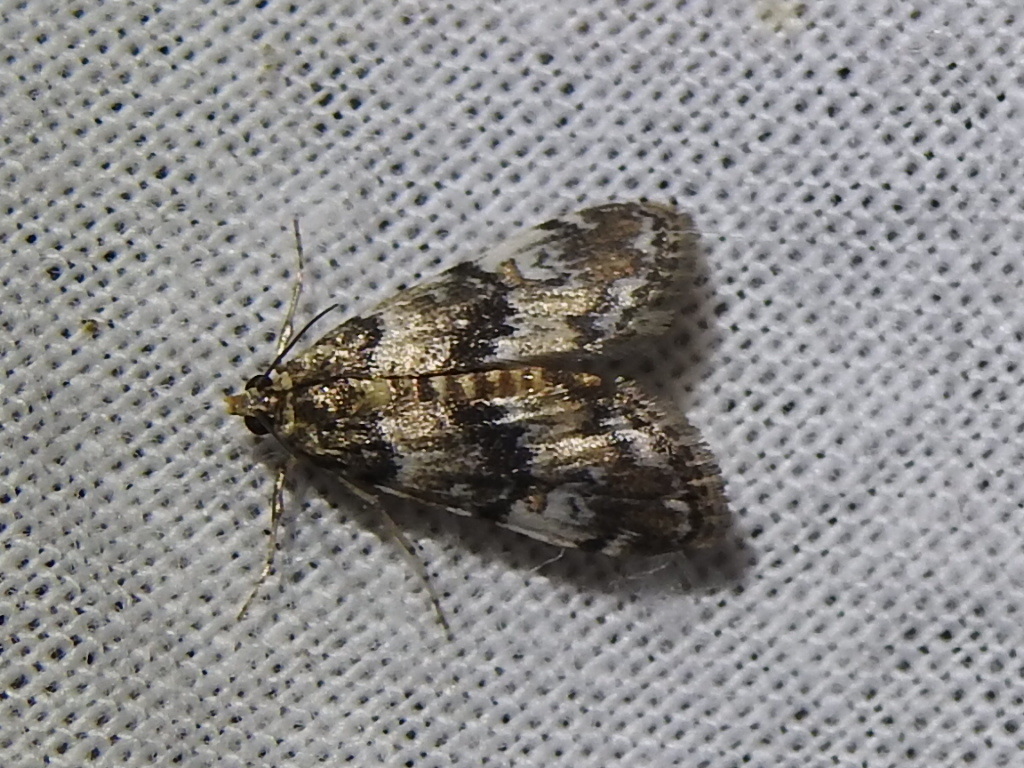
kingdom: Animalia
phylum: Arthropoda
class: Insecta
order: Lepidoptera
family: Crambidae
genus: Elophila
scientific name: Elophila obliteralis
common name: Waterlily leafcutter moth
